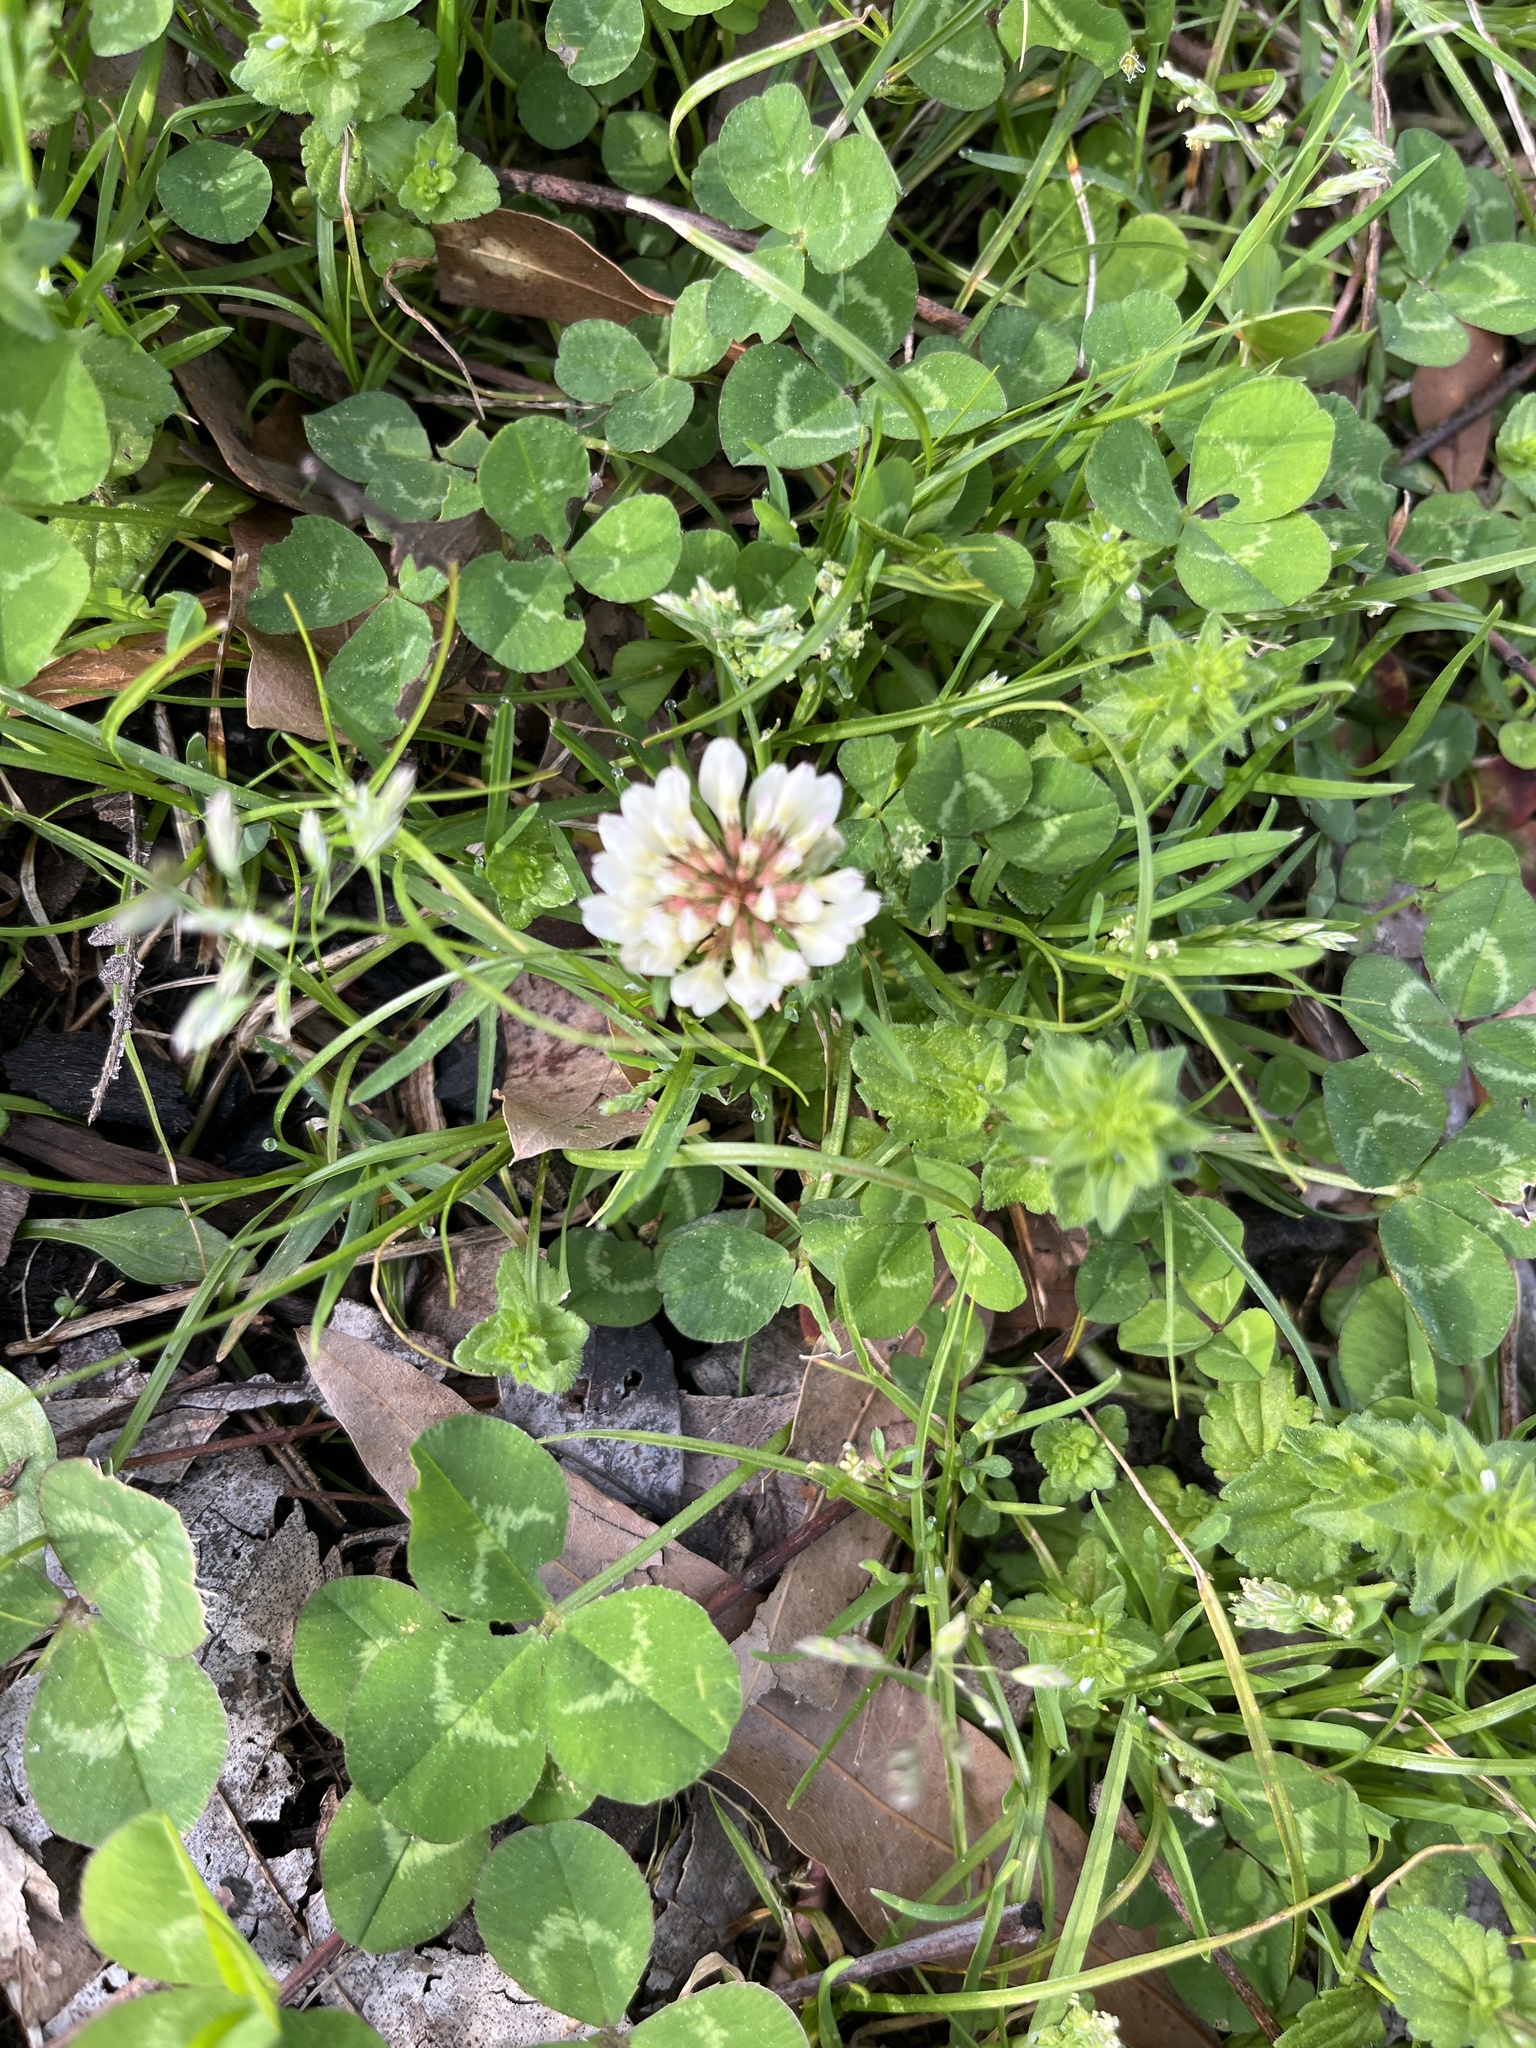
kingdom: Plantae
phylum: Tracheophyta
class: Magnoliopsida
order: Fabales
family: Fabaceae
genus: Trifolium
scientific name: Trifolium repens
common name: White clover
